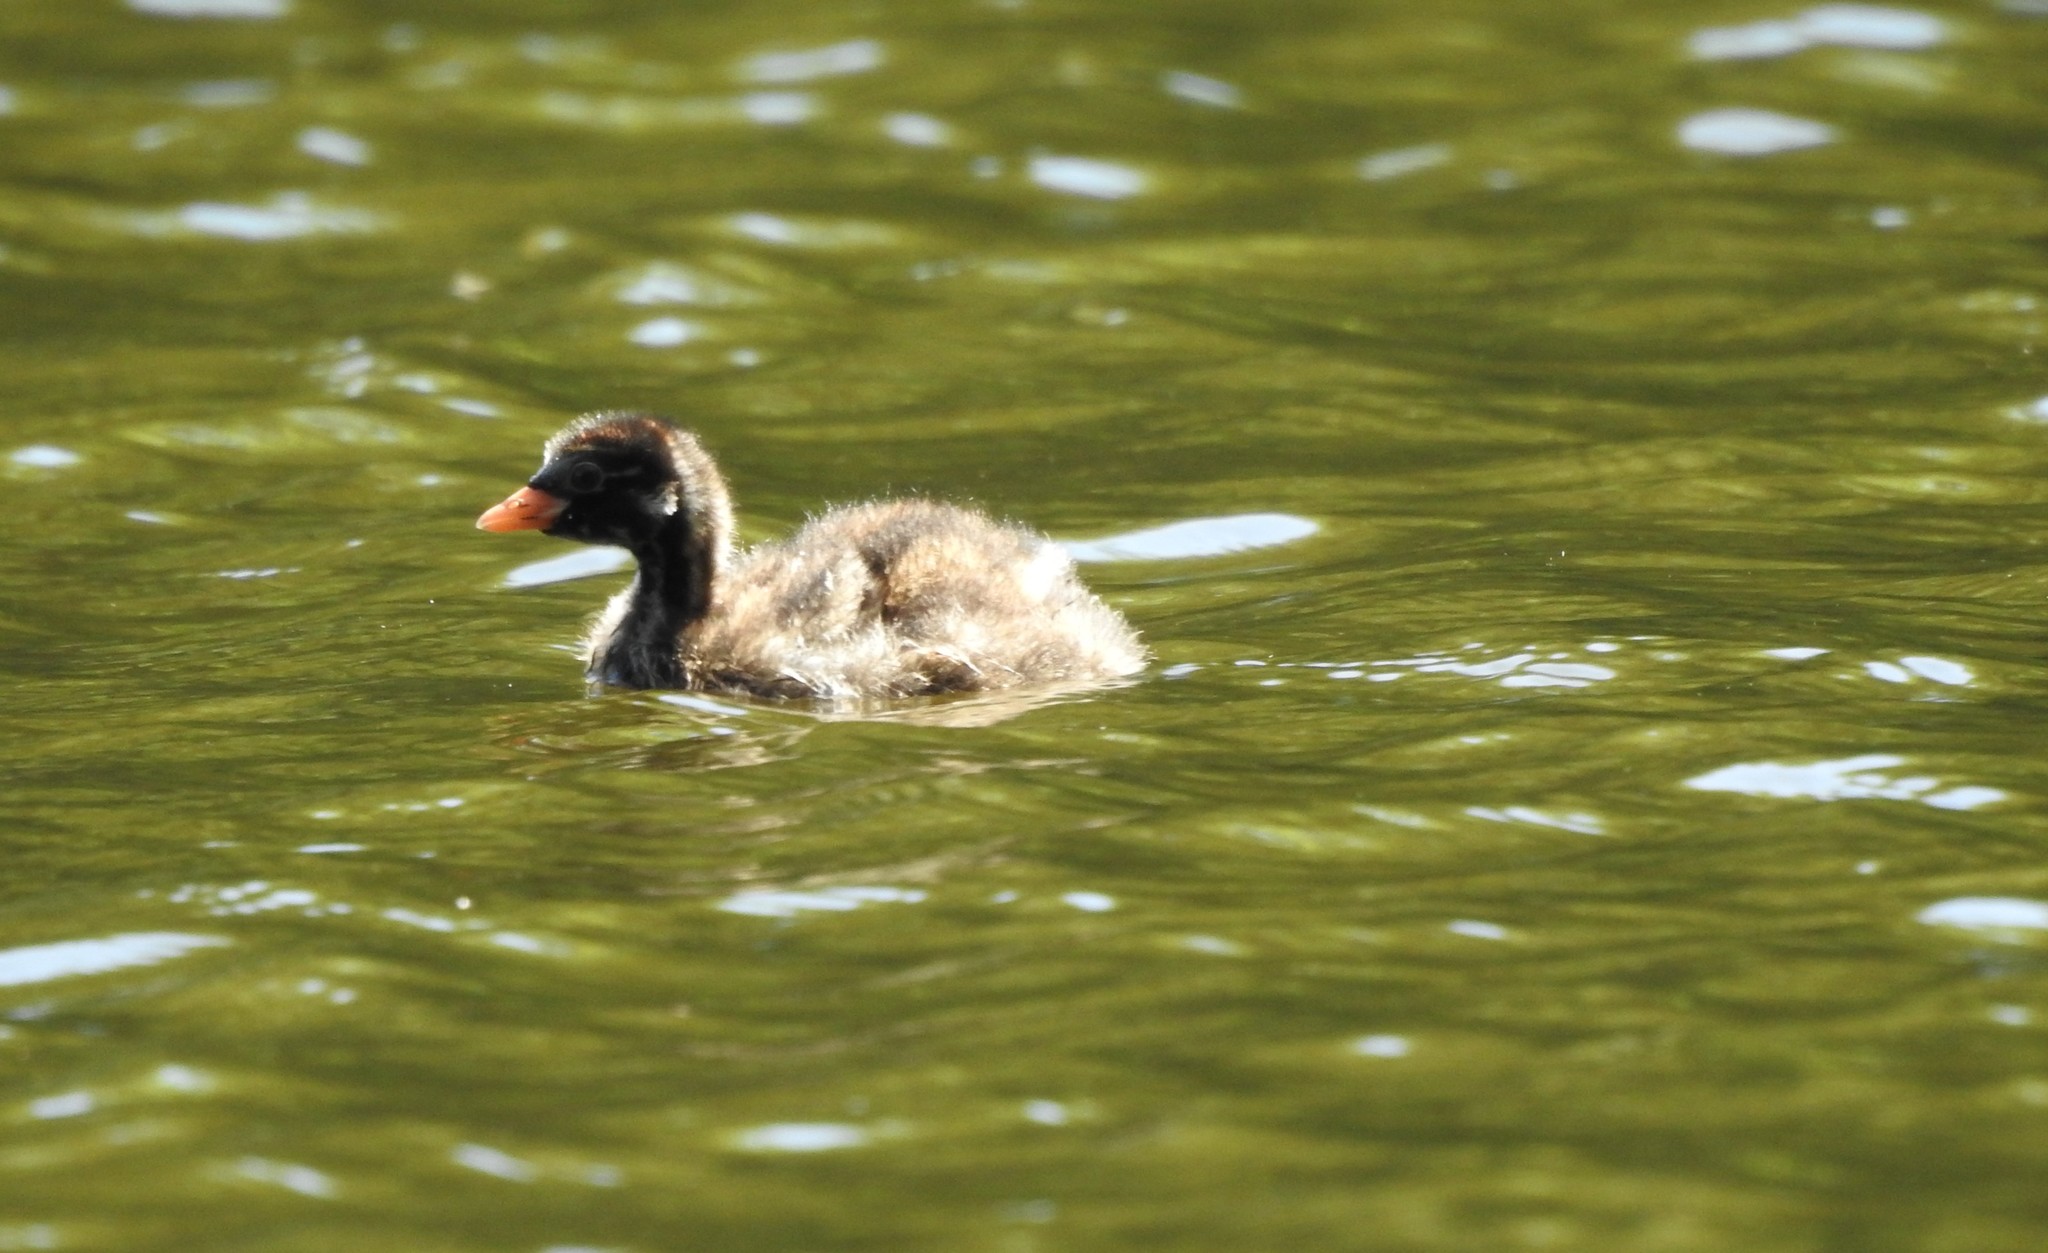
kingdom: Animalia
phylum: Chordata
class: Aves
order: Podicipediformes
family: Podicipedidae
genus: Tachybaptus
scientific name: Tachybaptus ruficollis
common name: Little grebe
